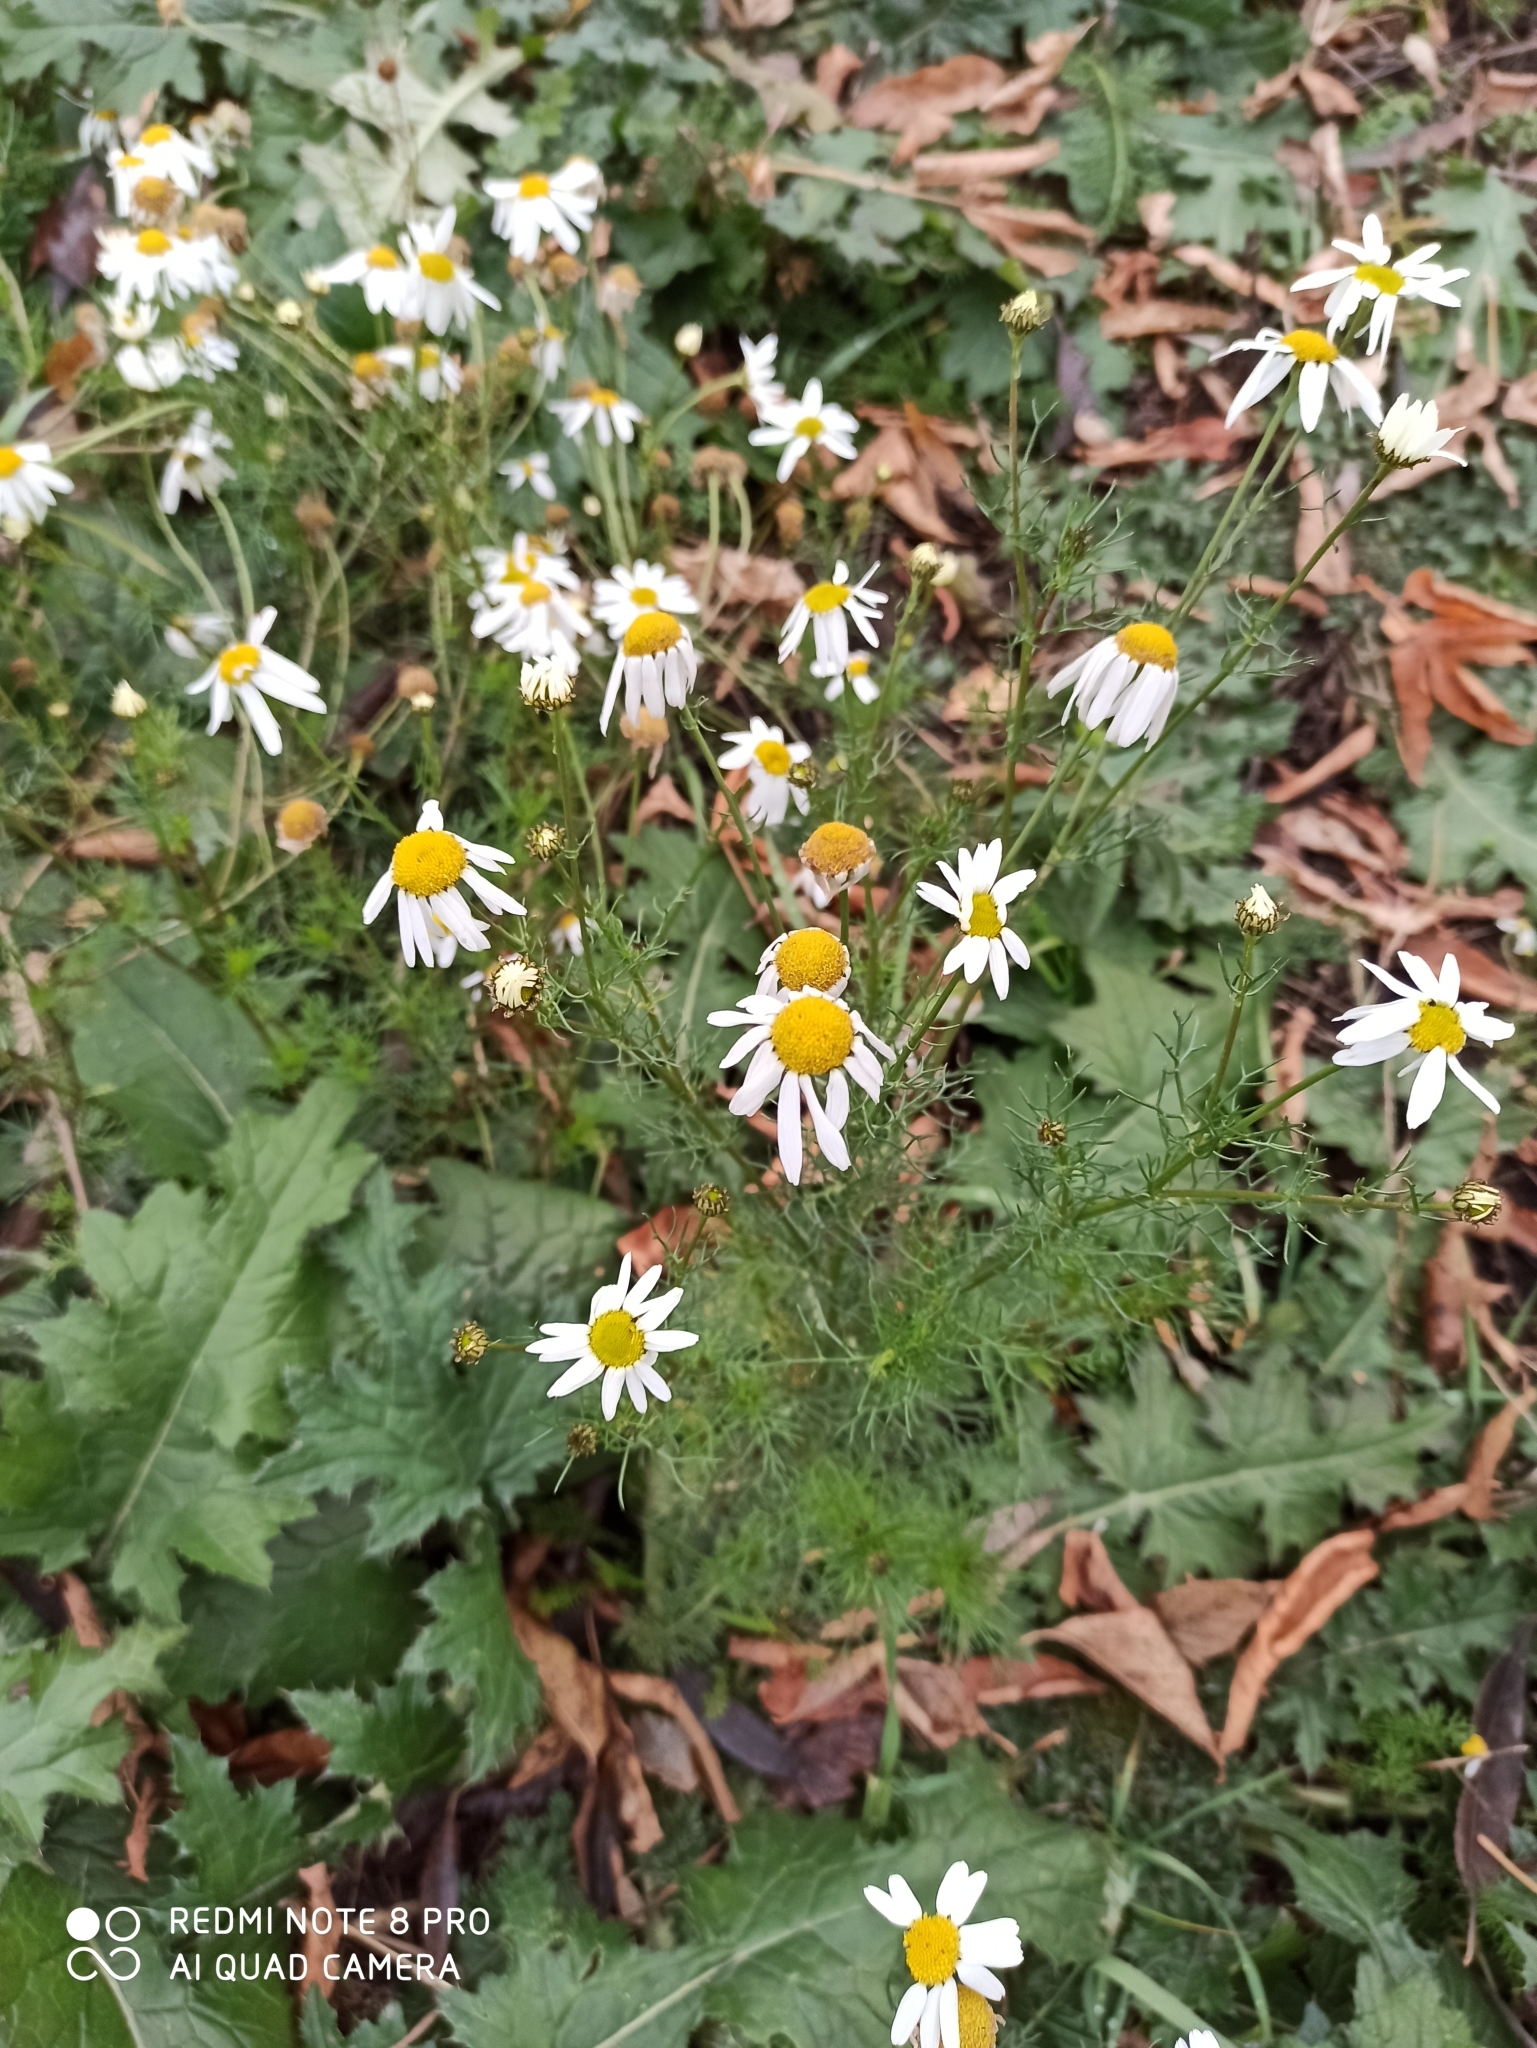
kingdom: Plantae
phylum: Tracheophyta
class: Magnoliopsida
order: Asterales
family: Asteraceae
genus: Tripleurospermum
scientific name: Tripleurospermum inodorum
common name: Scentless mayweed
